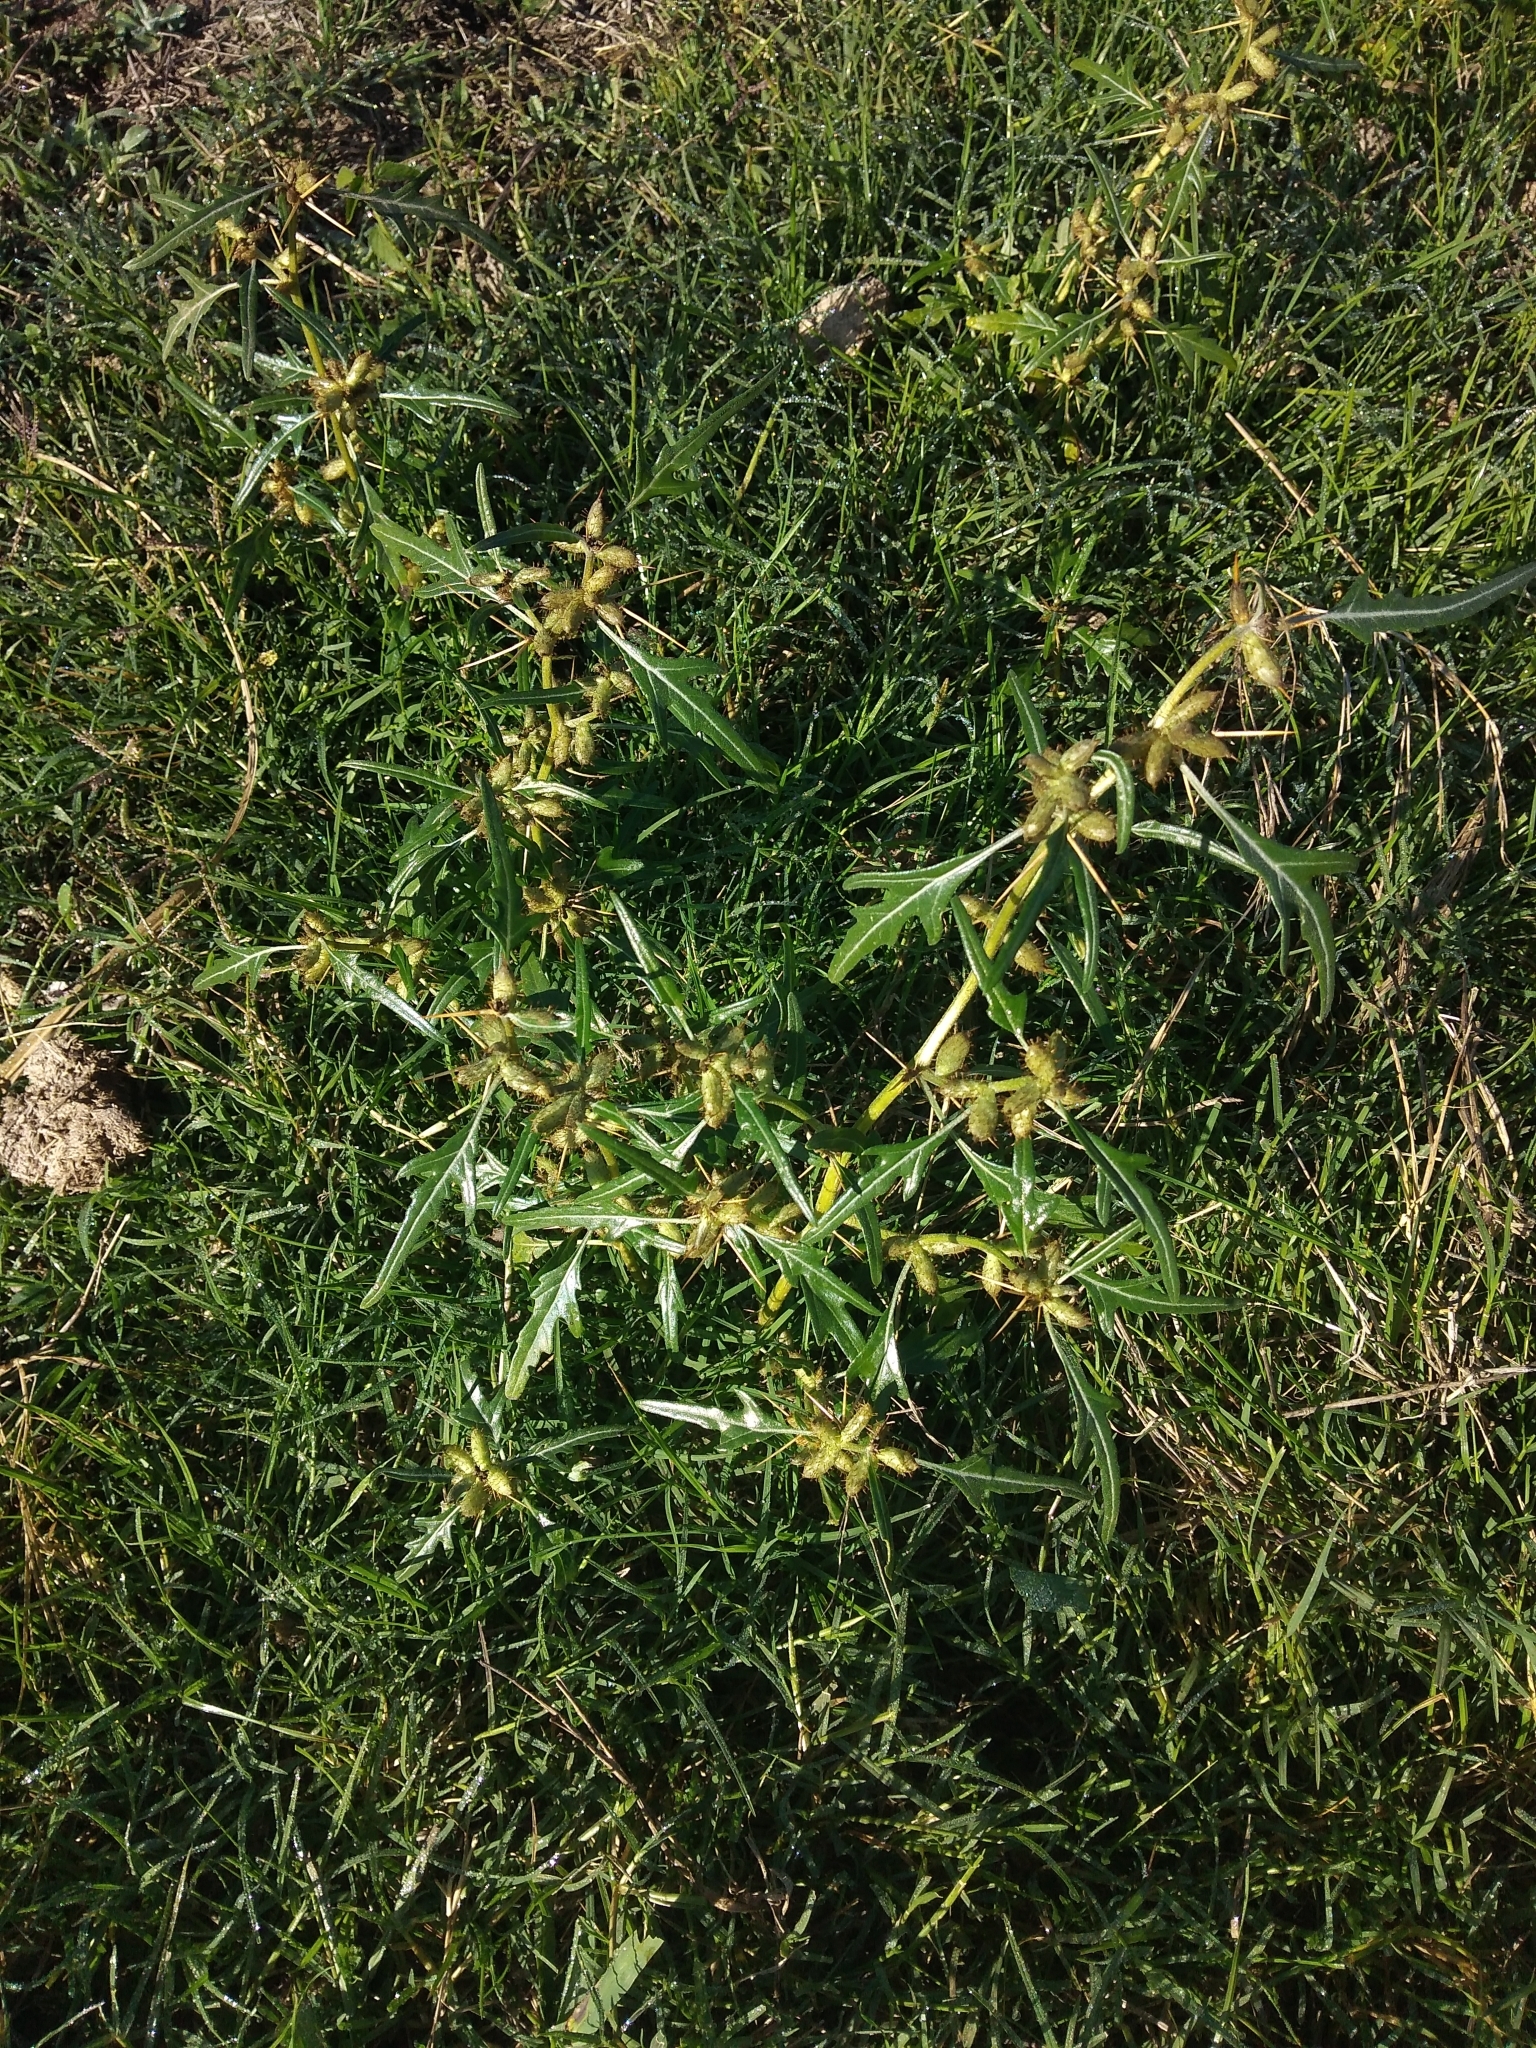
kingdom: Plantae
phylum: Tracheophyta
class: Magnoliopsida
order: Asterales
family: Asteraceae
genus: Xanthium
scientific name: Xanthium spinosum
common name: Spiny cocklebur
